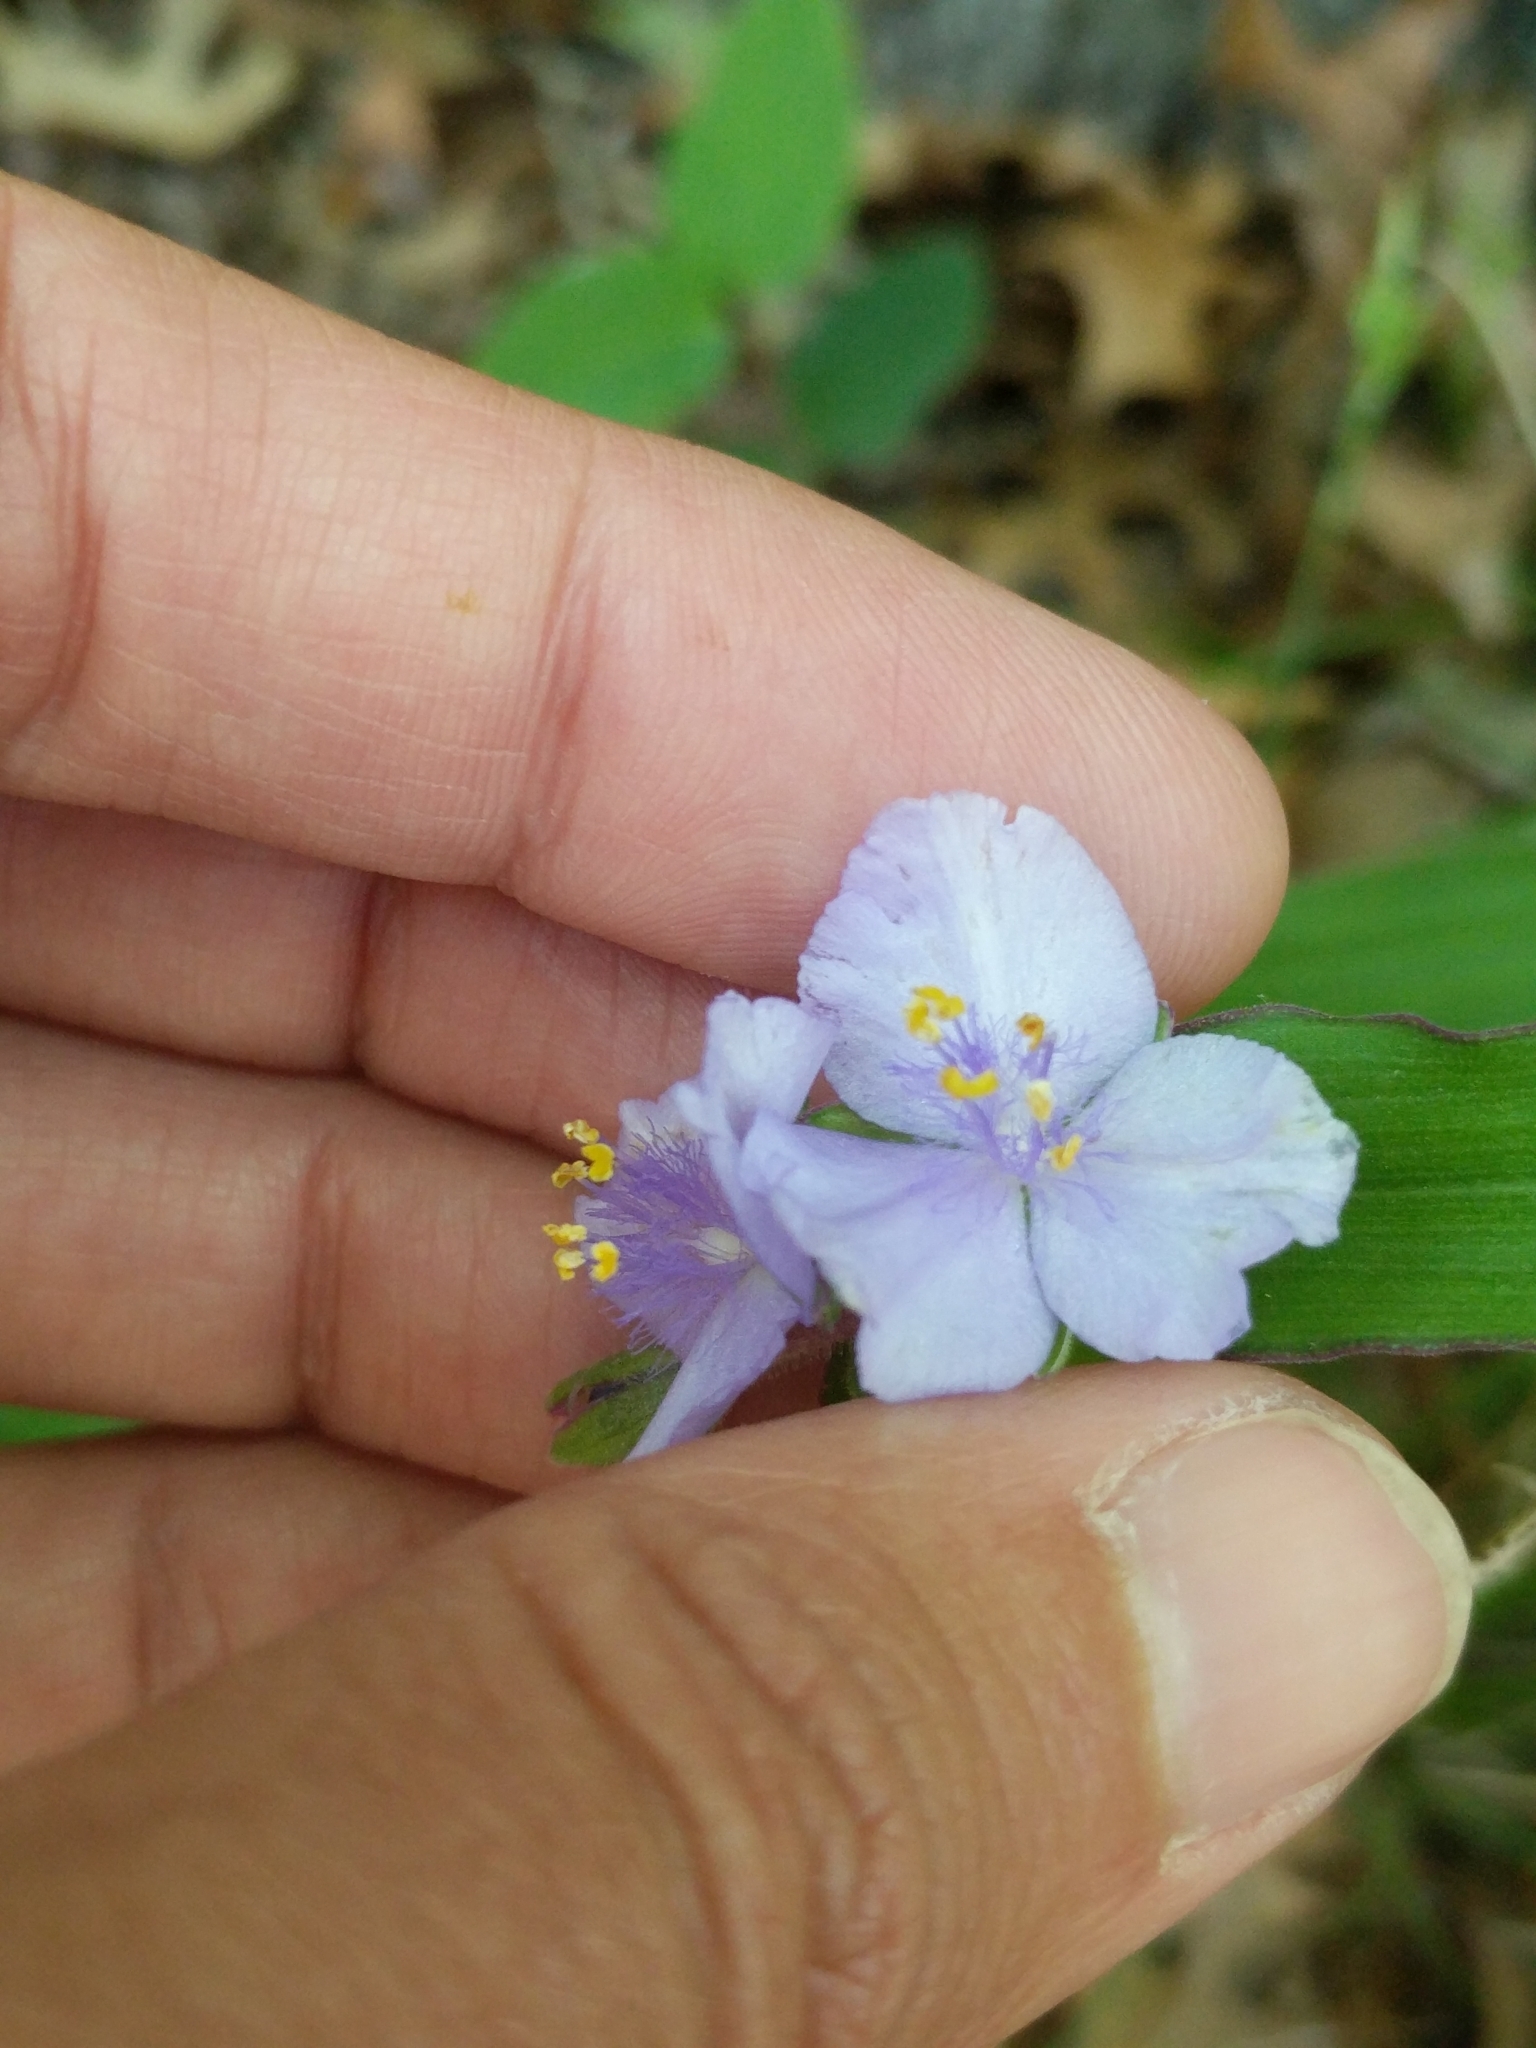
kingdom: Plantae
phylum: Tracheophyta
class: Liliopsida
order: Commelinales
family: Commelinaceae
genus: Tradescantia
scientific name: Tradescantia edwardsiana
